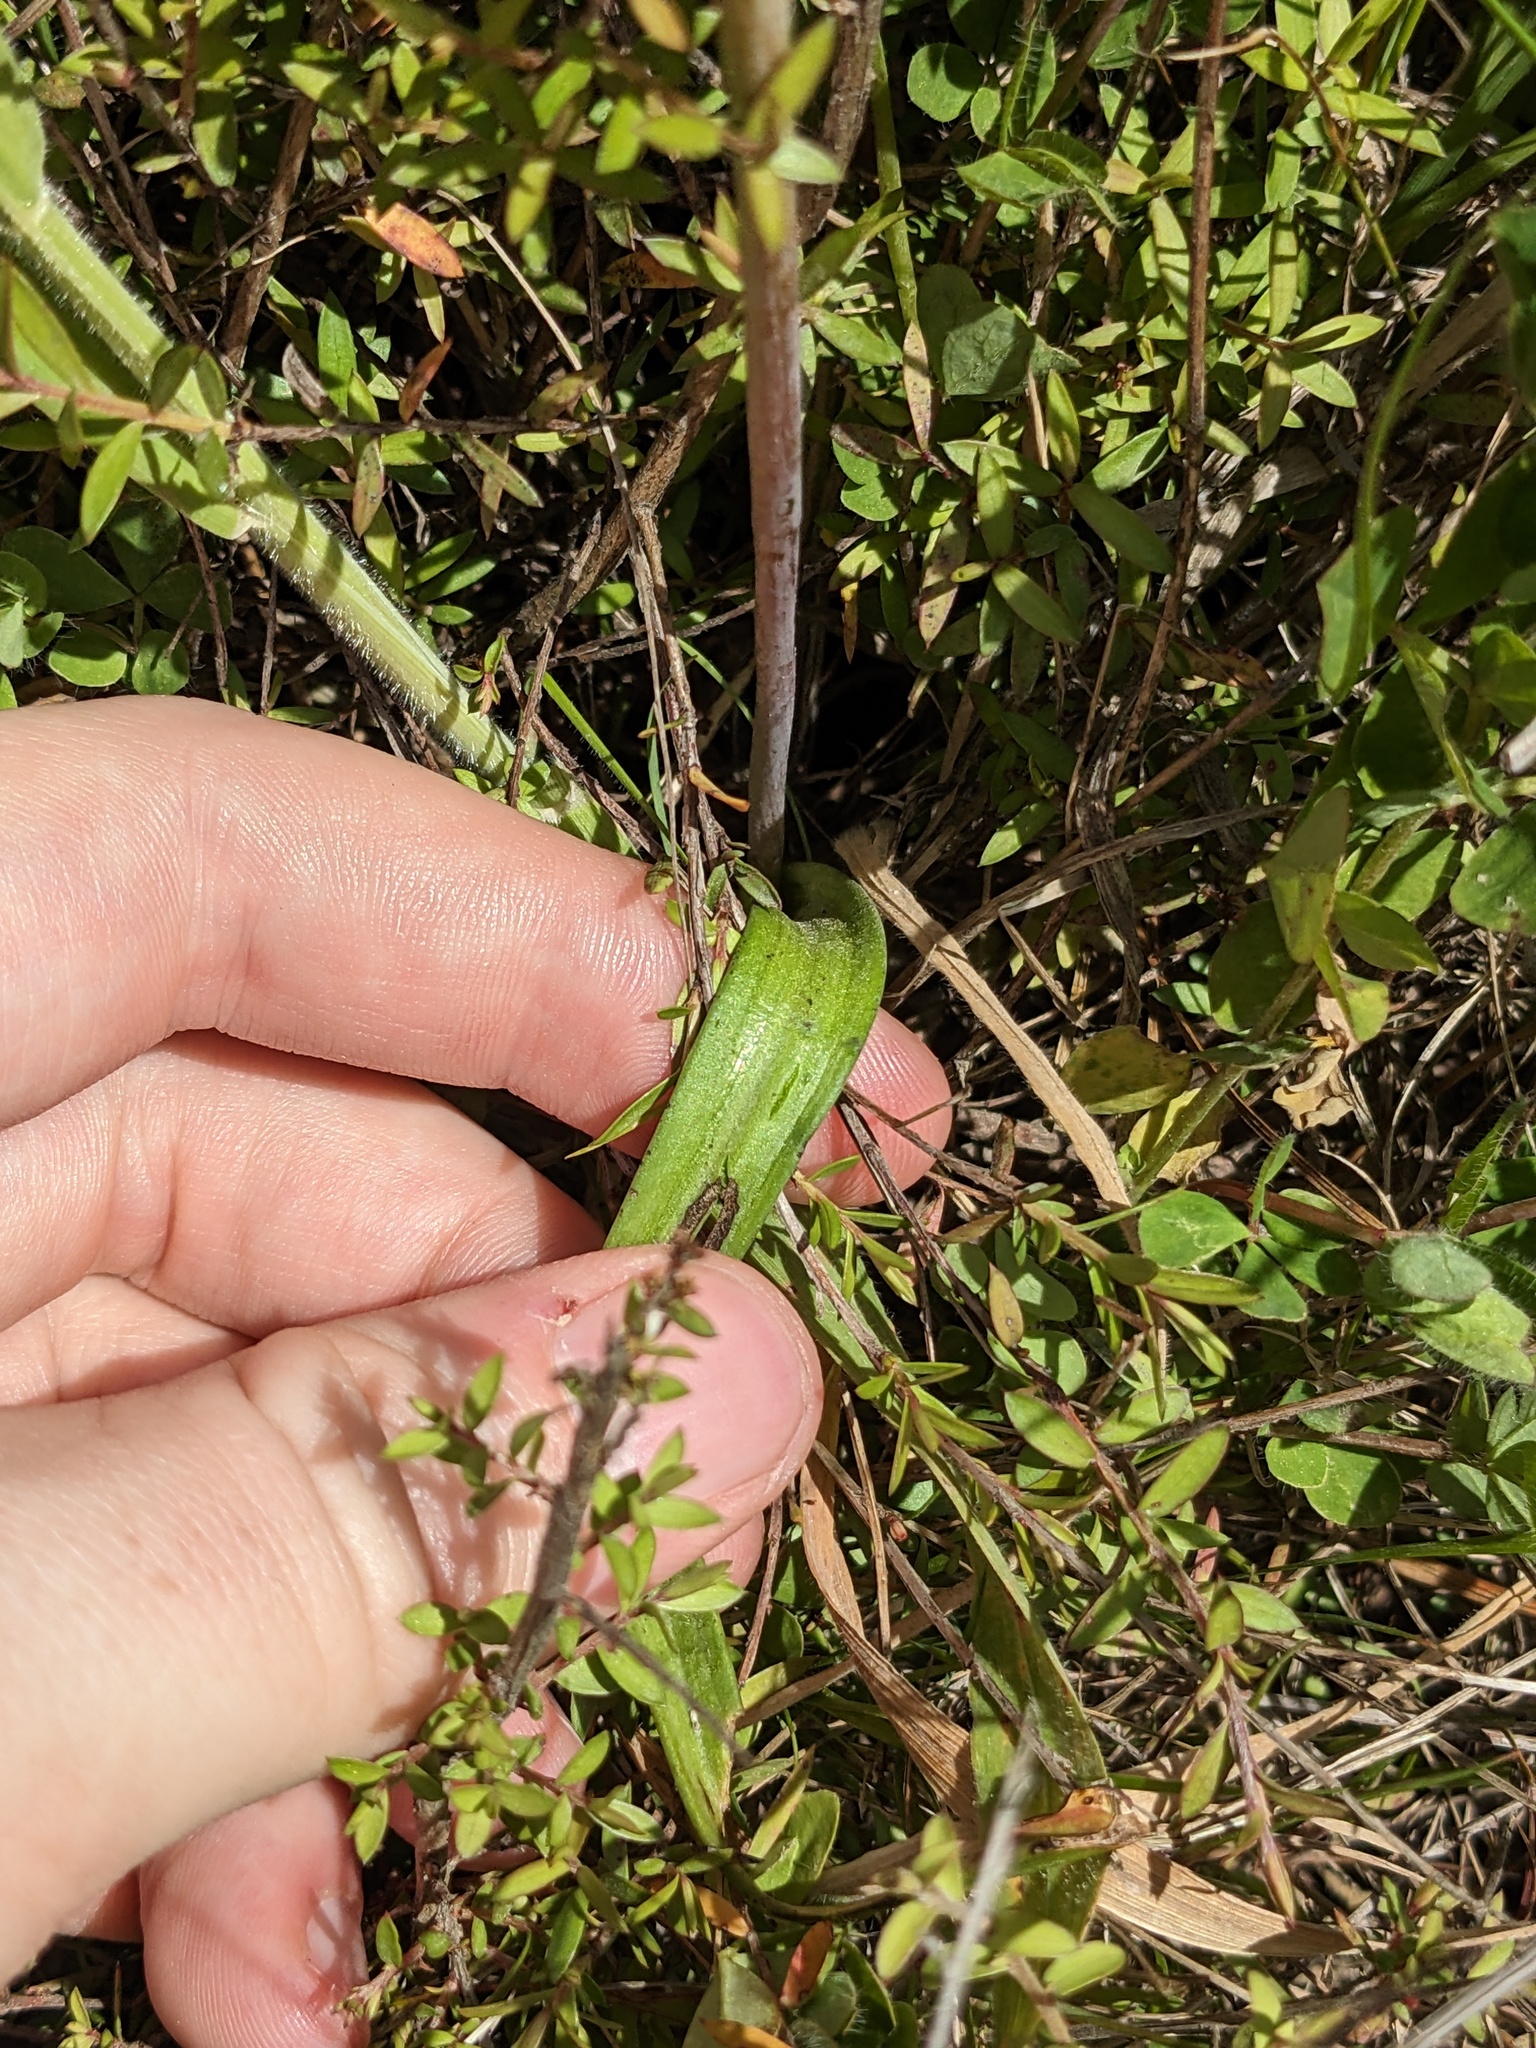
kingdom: Plantae
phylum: Tracheophyta
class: Liliopsida
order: Asparagales
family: Orchidaceae
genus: Thelymitra
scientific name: Thelymitra pauciflora
